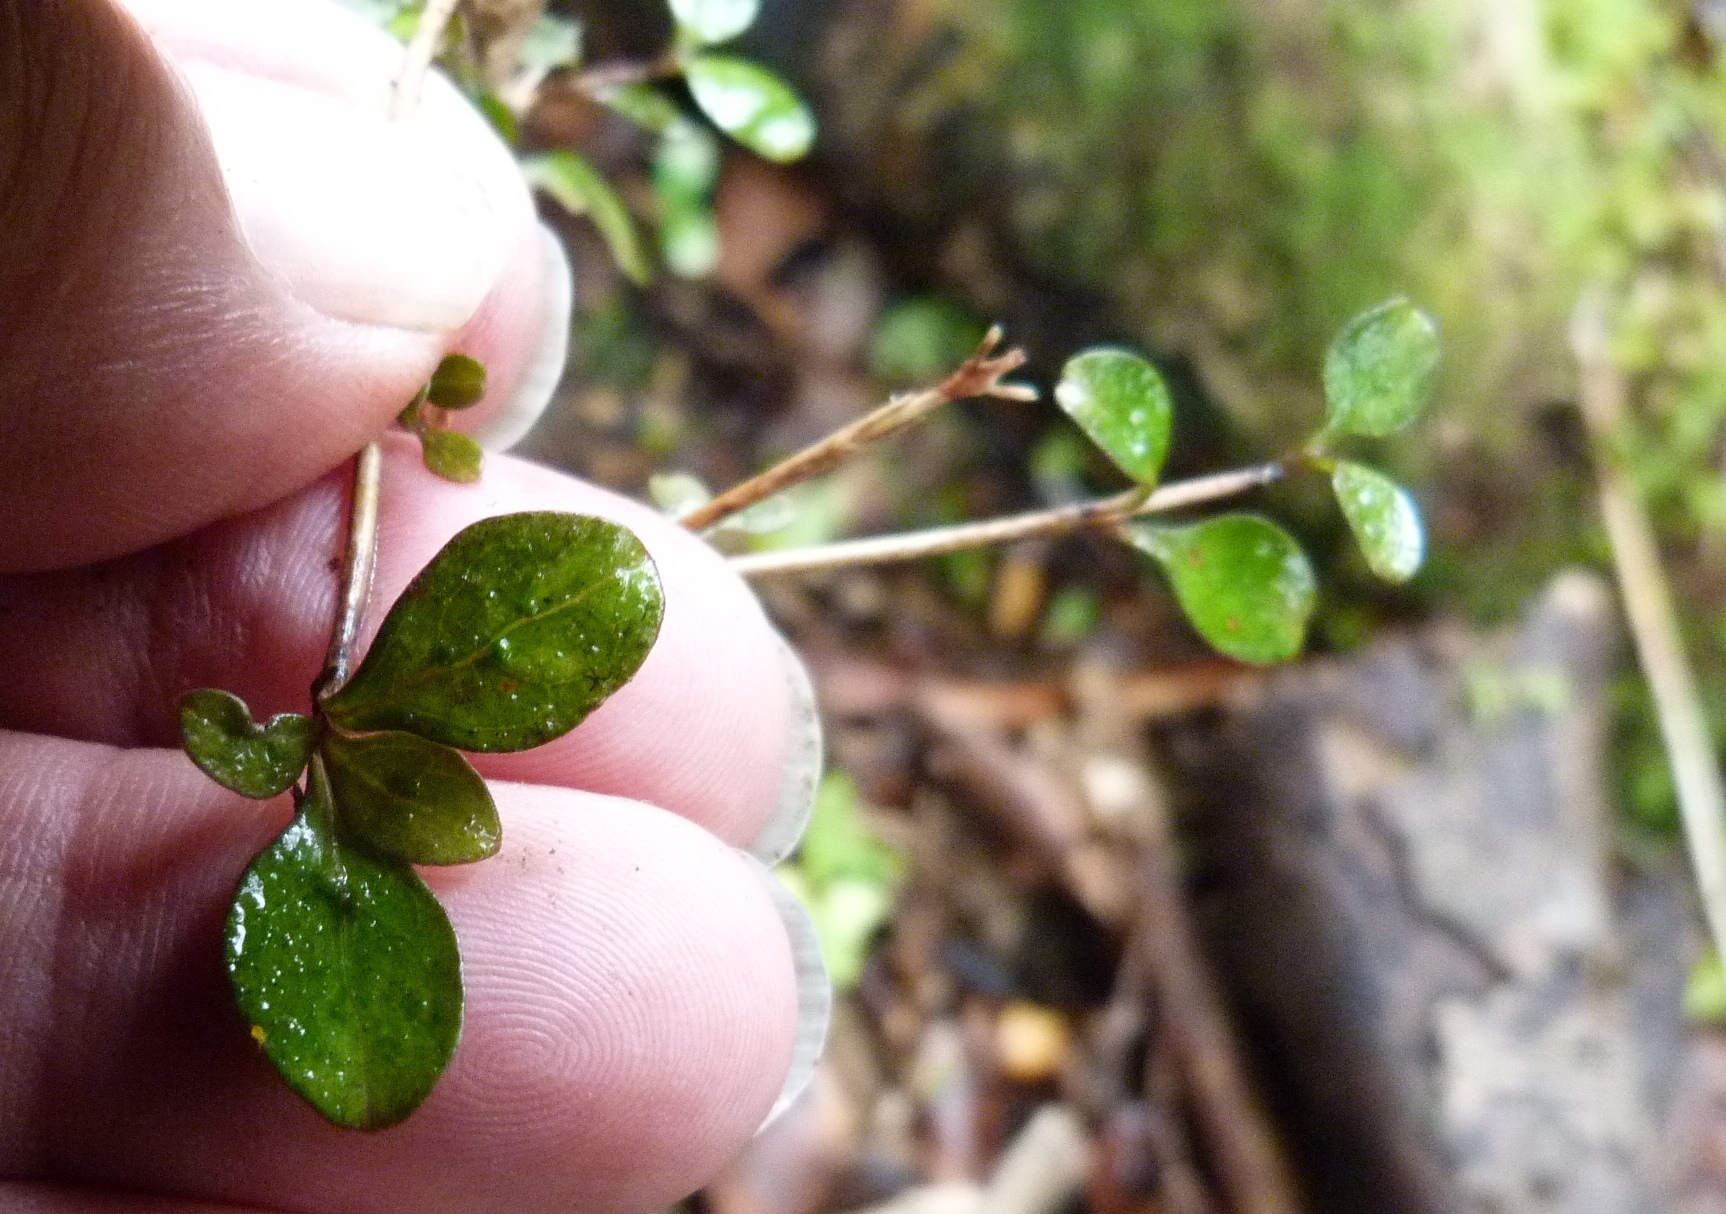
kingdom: Plantae
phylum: Tracheophyta
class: Magnoliopsida
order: Gentianales
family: Rubiaceae
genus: Coprosma
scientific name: Coprosma rigida
